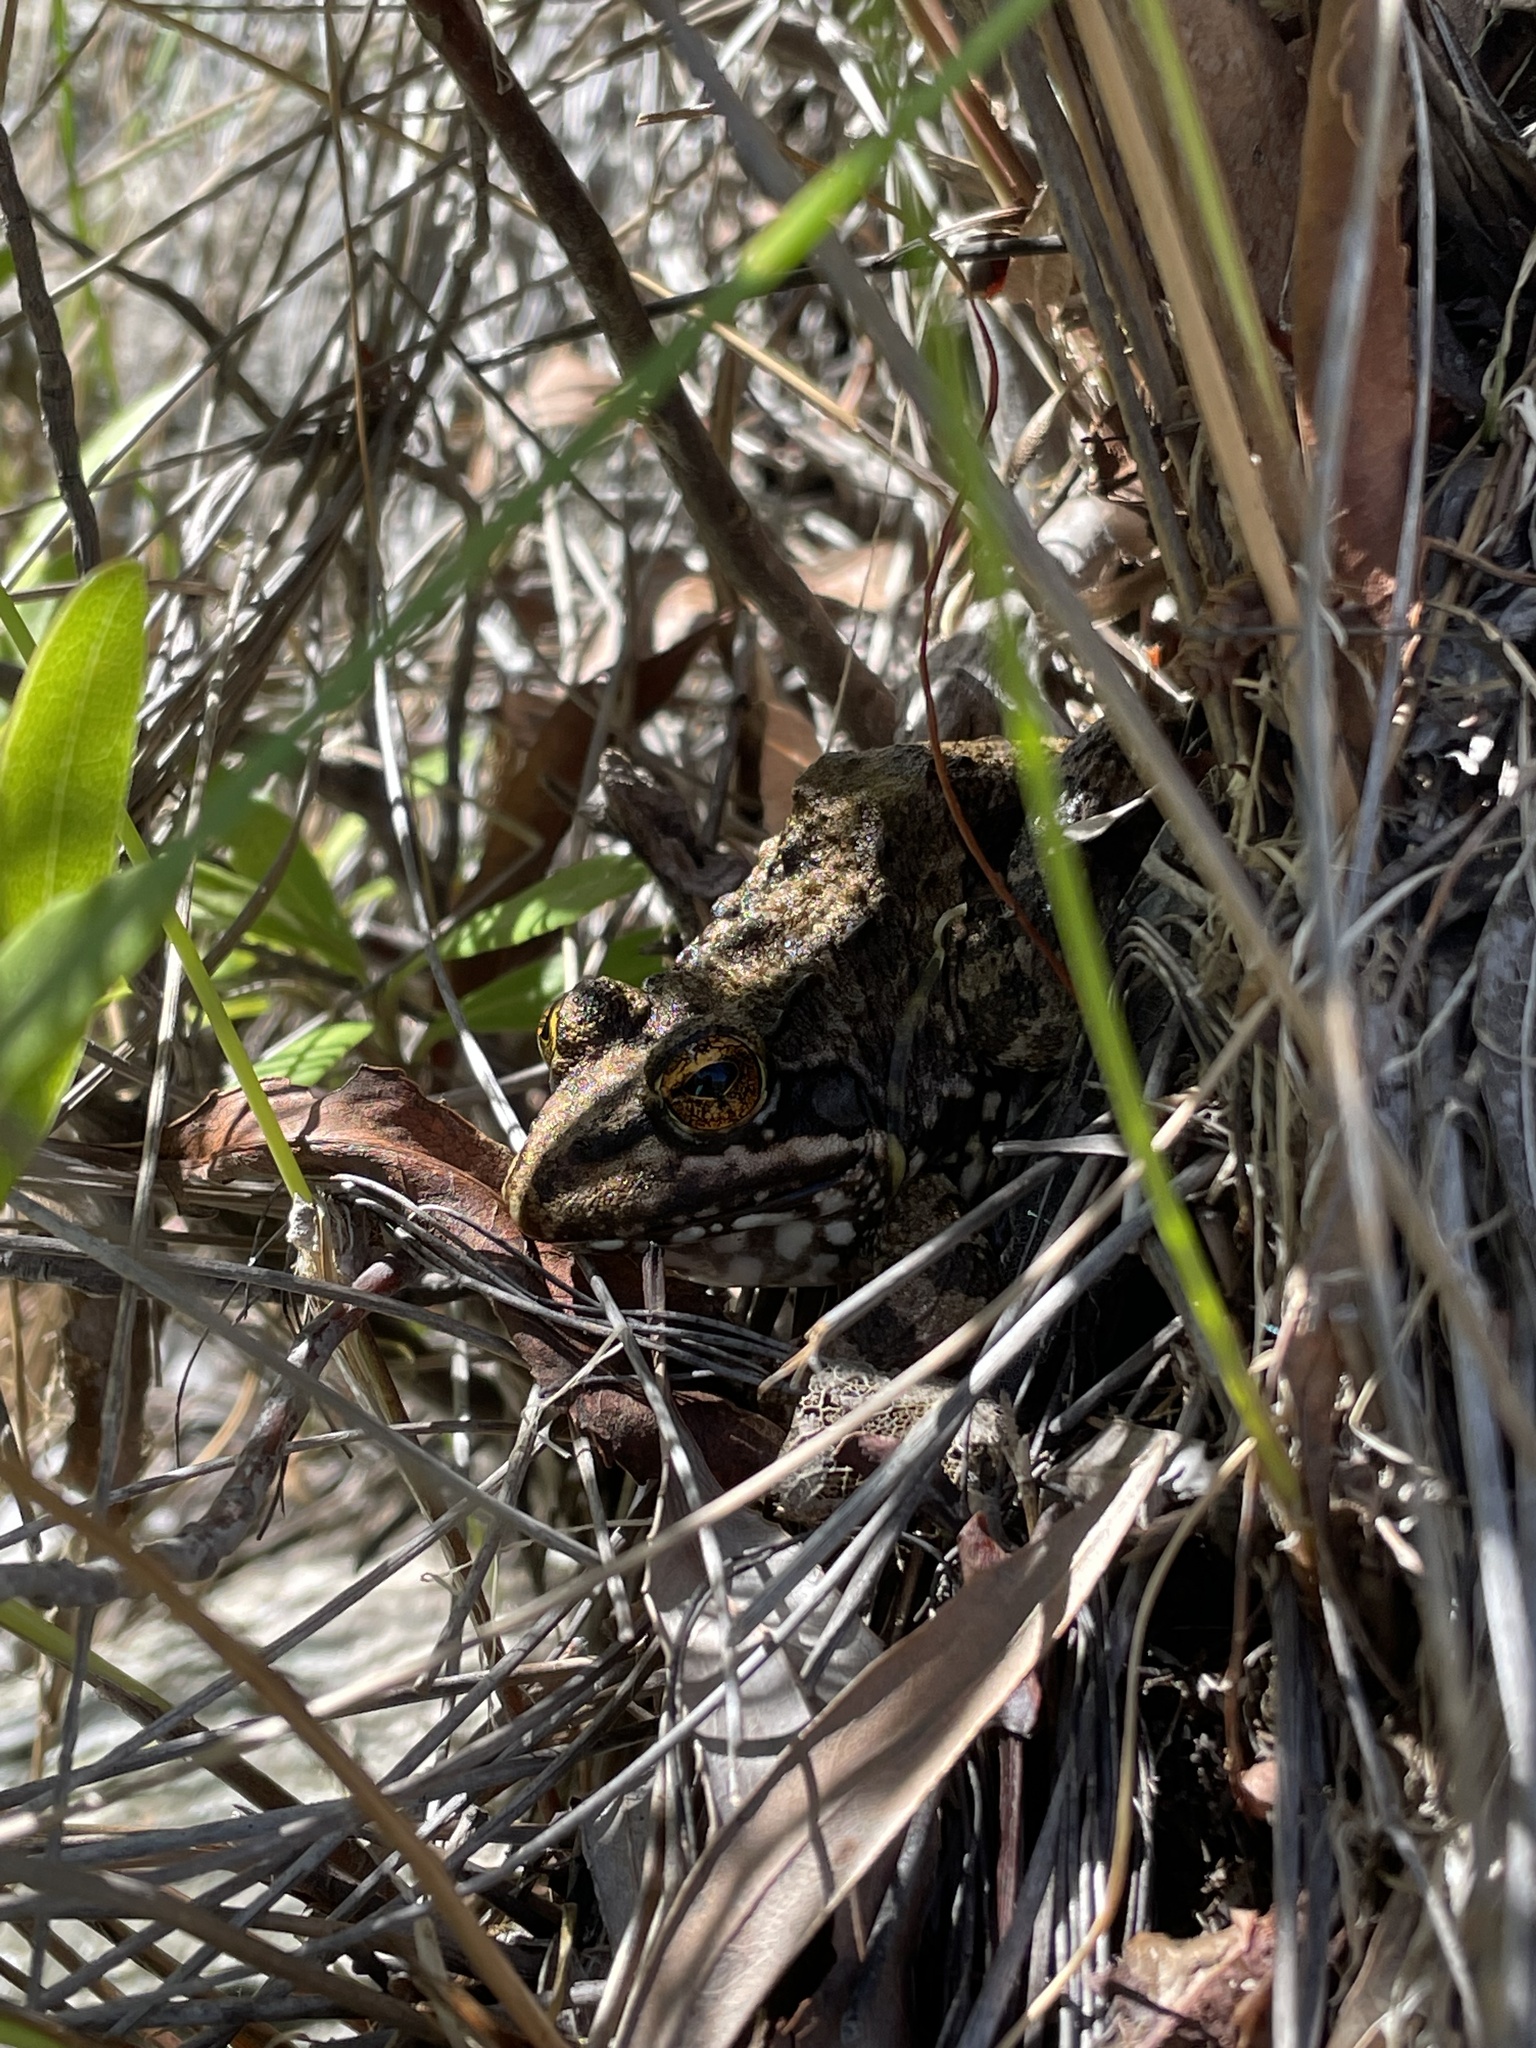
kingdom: Animalia
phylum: Chordata
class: Amphibia
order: Anura
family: Pyxicephalidae
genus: Amietia
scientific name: Amietia fuscigula
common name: Cape rana
